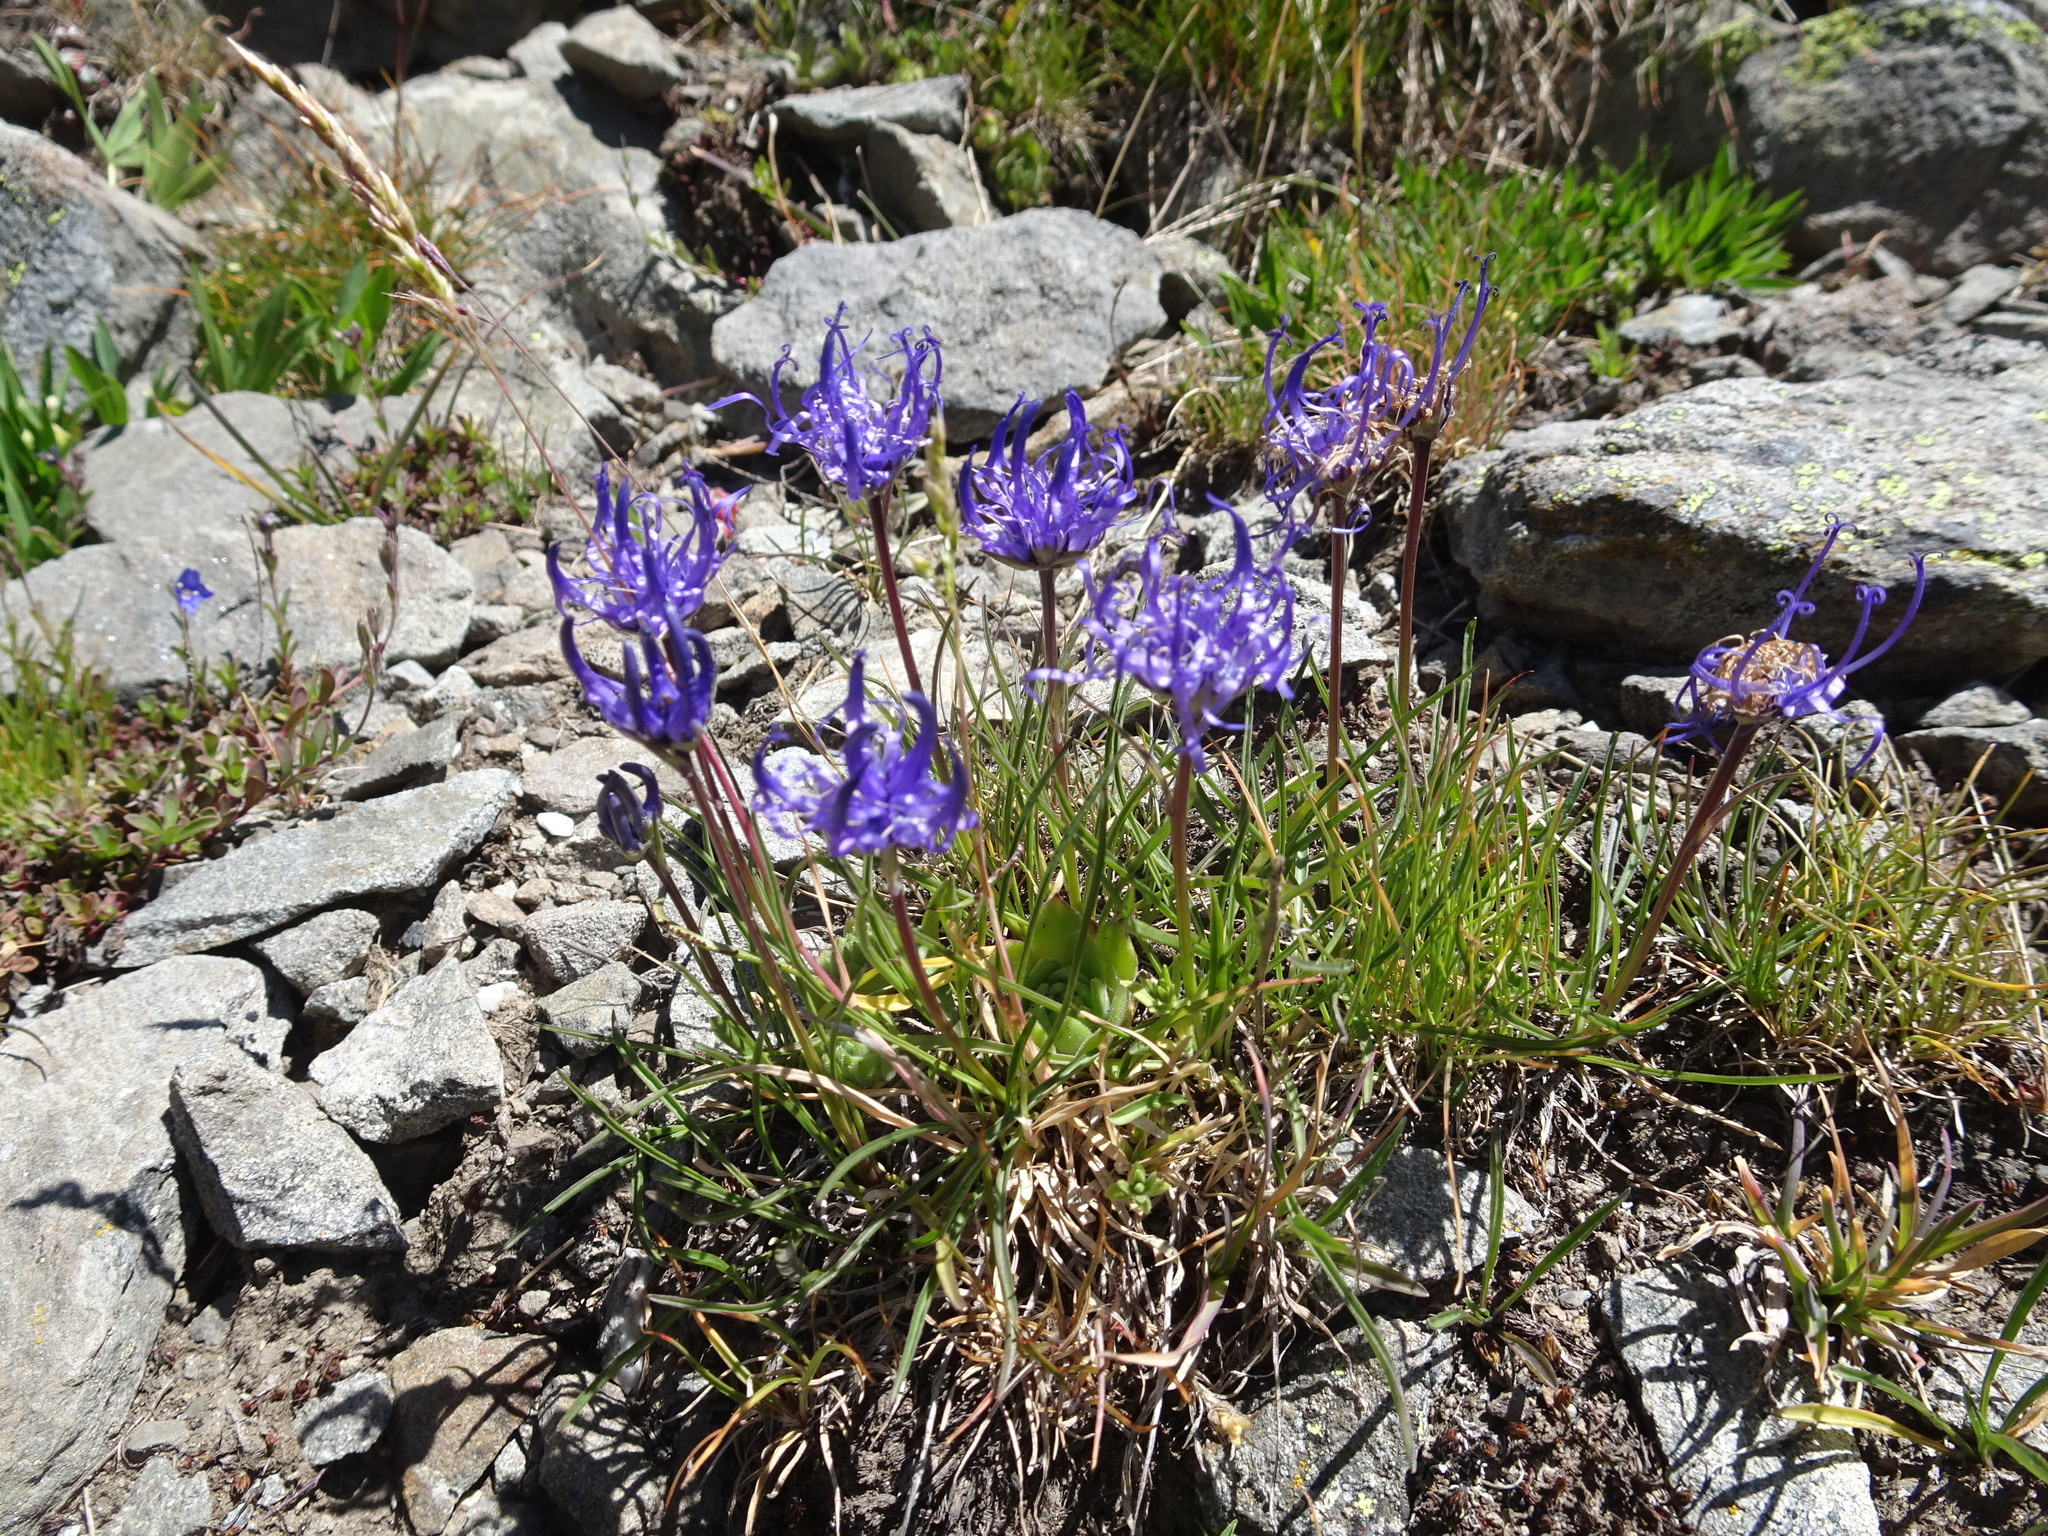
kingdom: Plantae
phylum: Tracheophyta
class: Magnoliopsida
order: Asterales
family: Campanulaceae
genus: Phyteuma
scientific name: Phyteuma hemisphaericum
